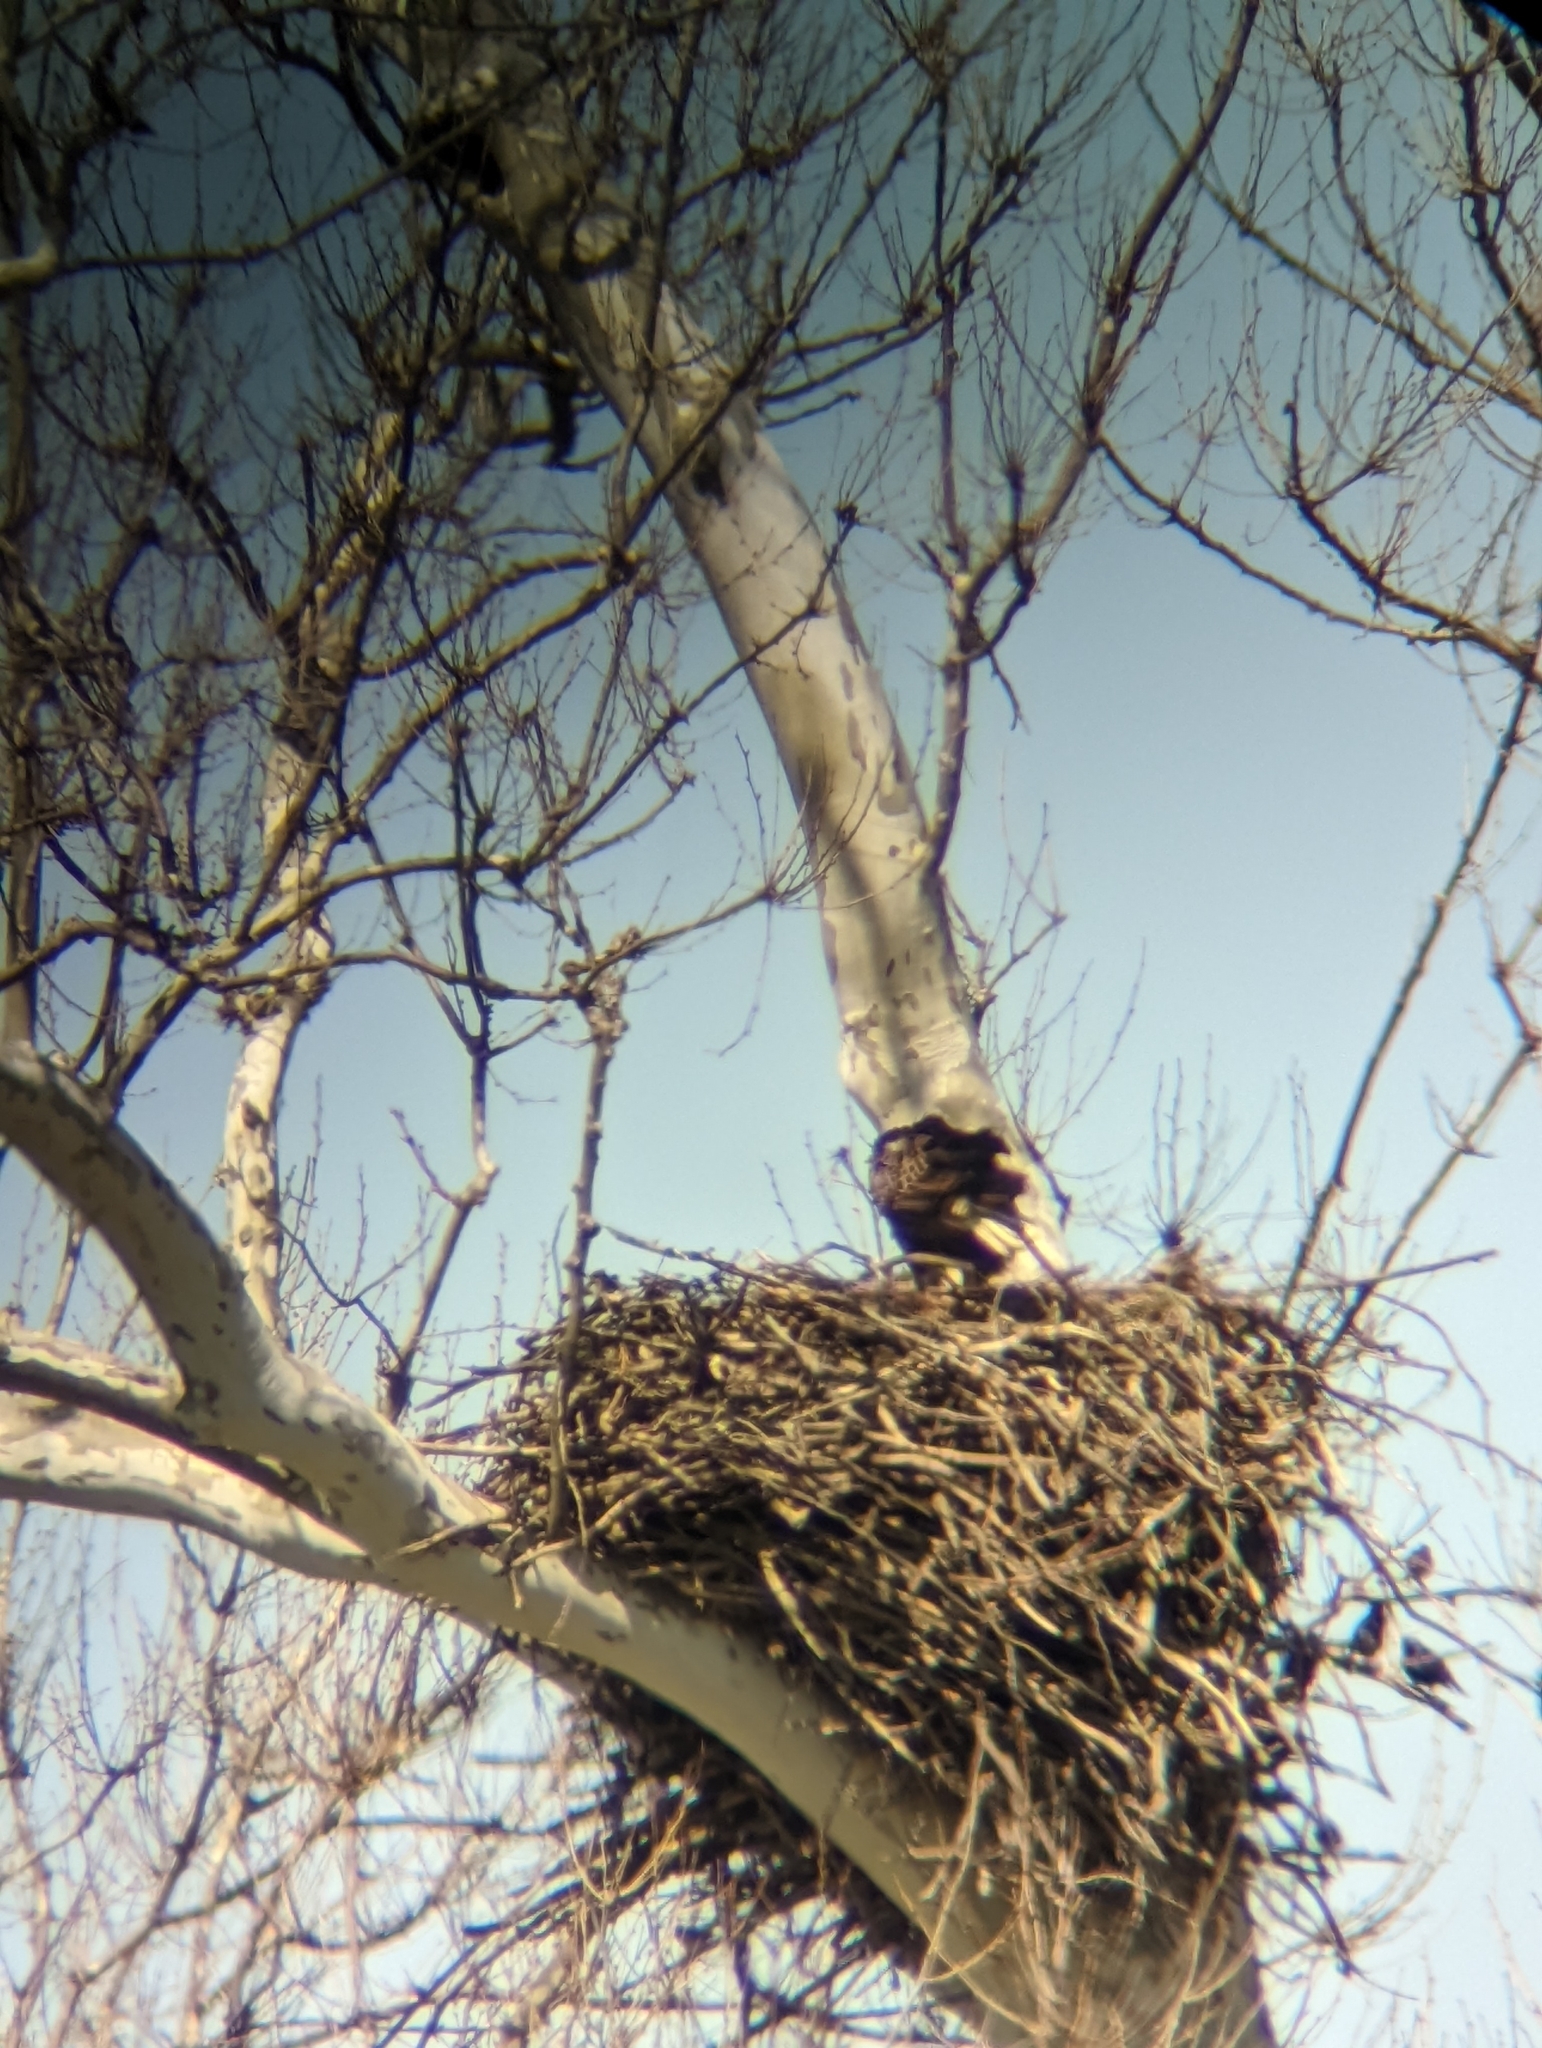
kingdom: Animalia
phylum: Chordata
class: Aves
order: Accipitriformes
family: Accipitridae
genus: Haliaeetus
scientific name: Haliaeetus leucocephalus
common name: Bald eagle
